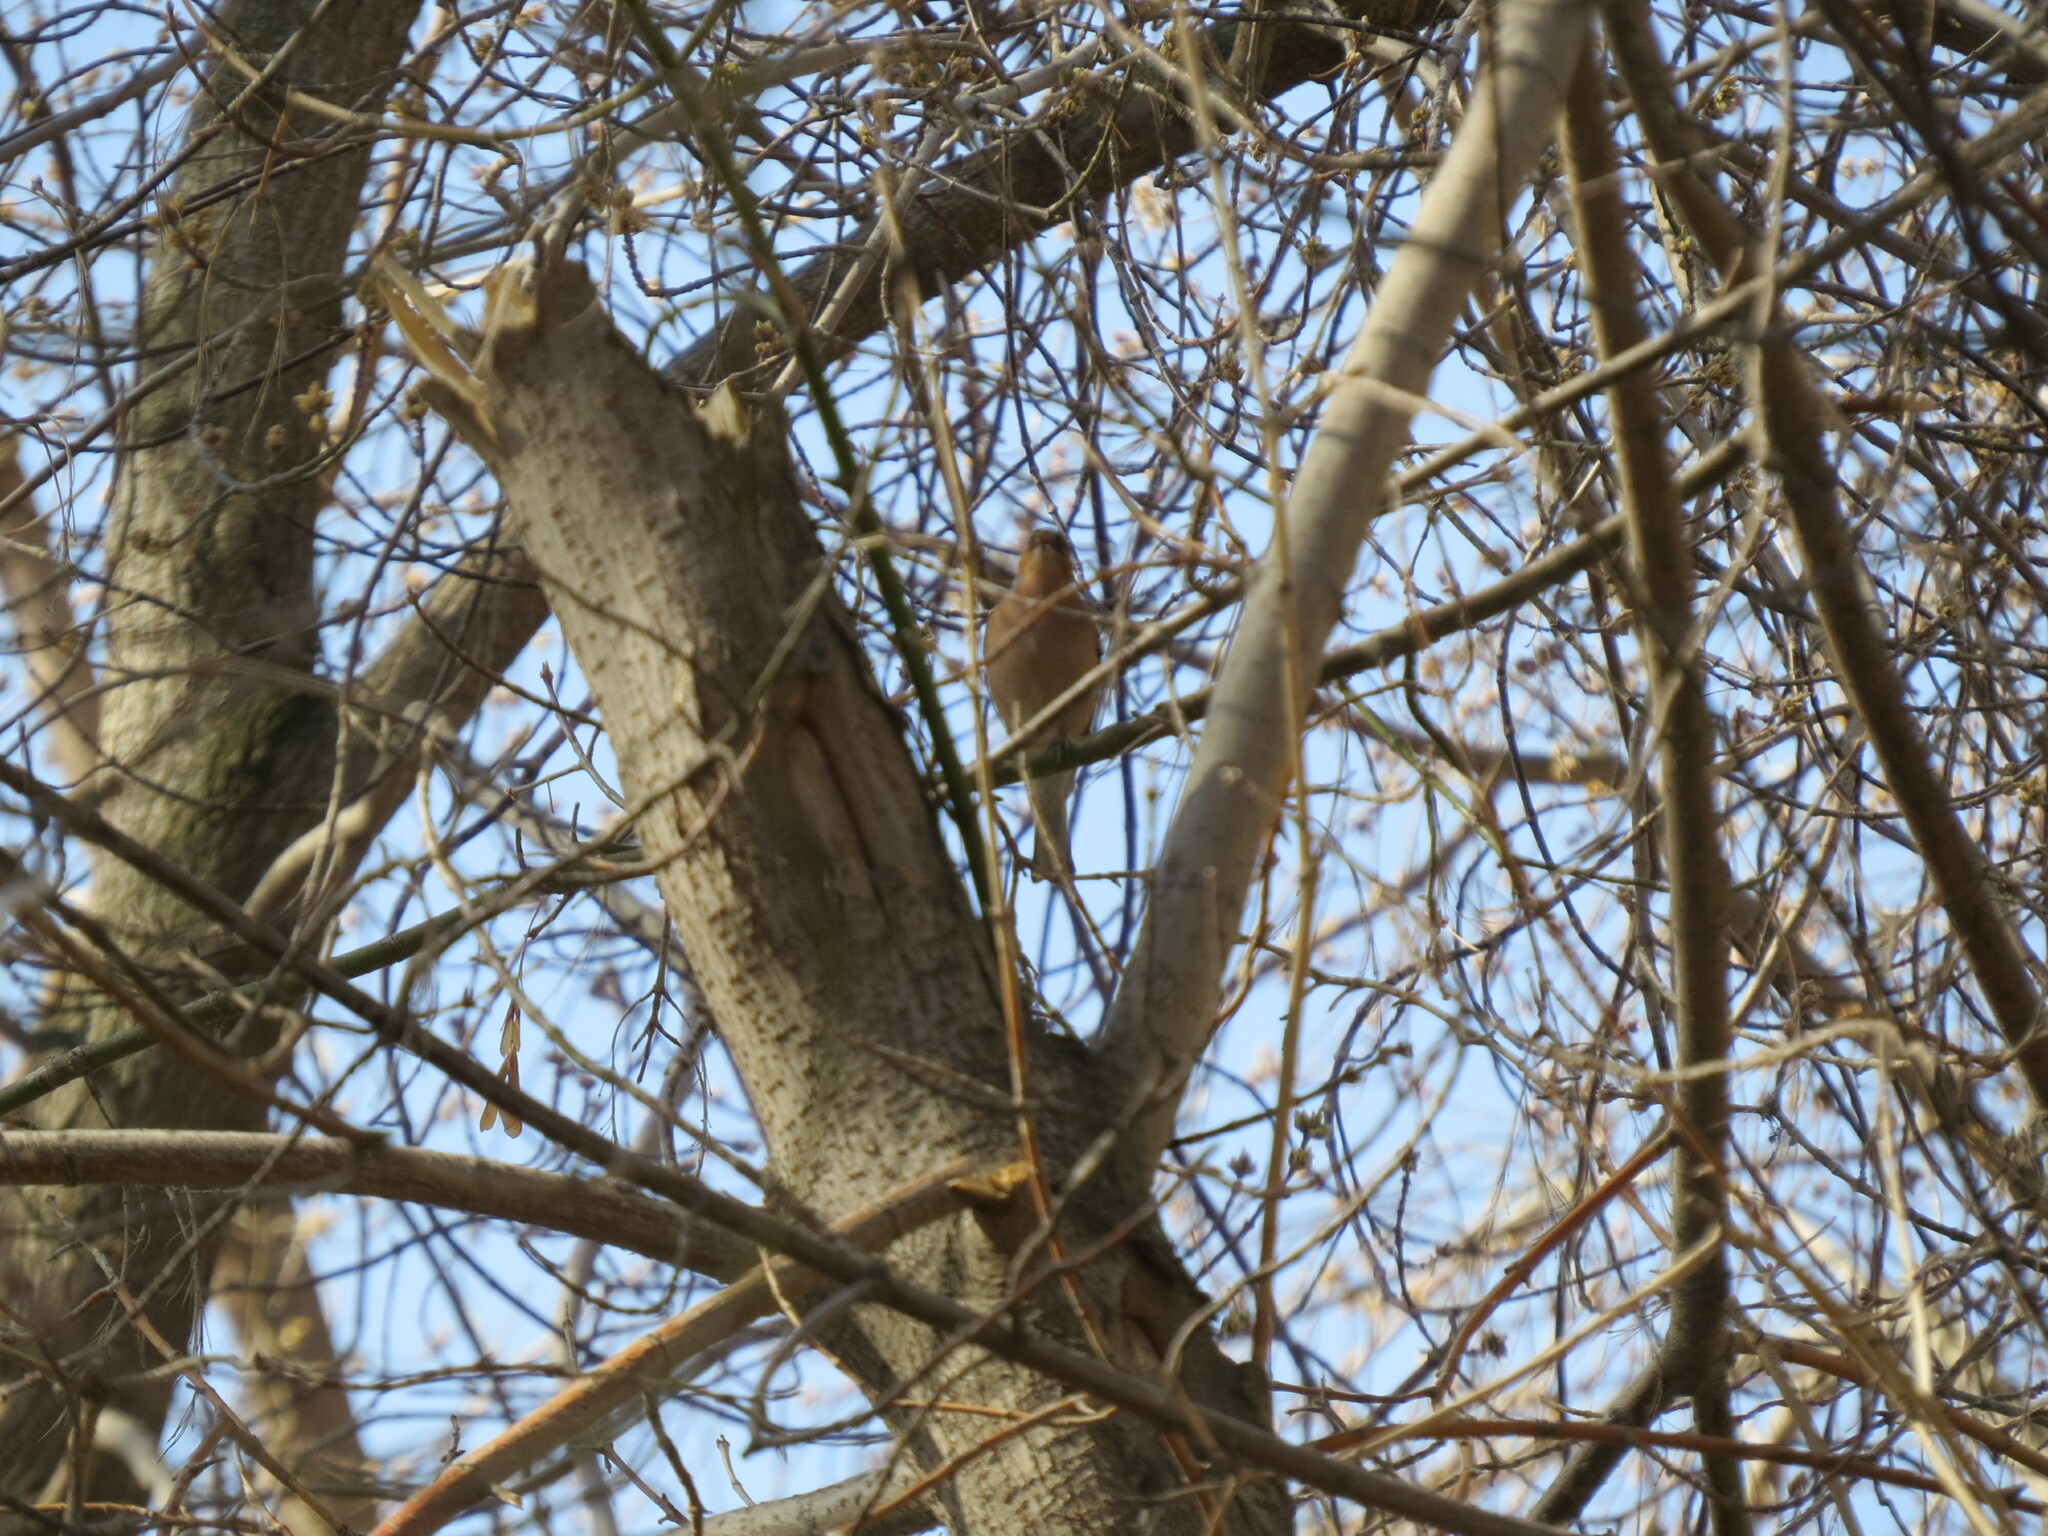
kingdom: Animalia
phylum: Chordata
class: Aves
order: Passeriformes
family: Fringillidae
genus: Fringilla
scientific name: Fringilla coelebs
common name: Common chaffinch
